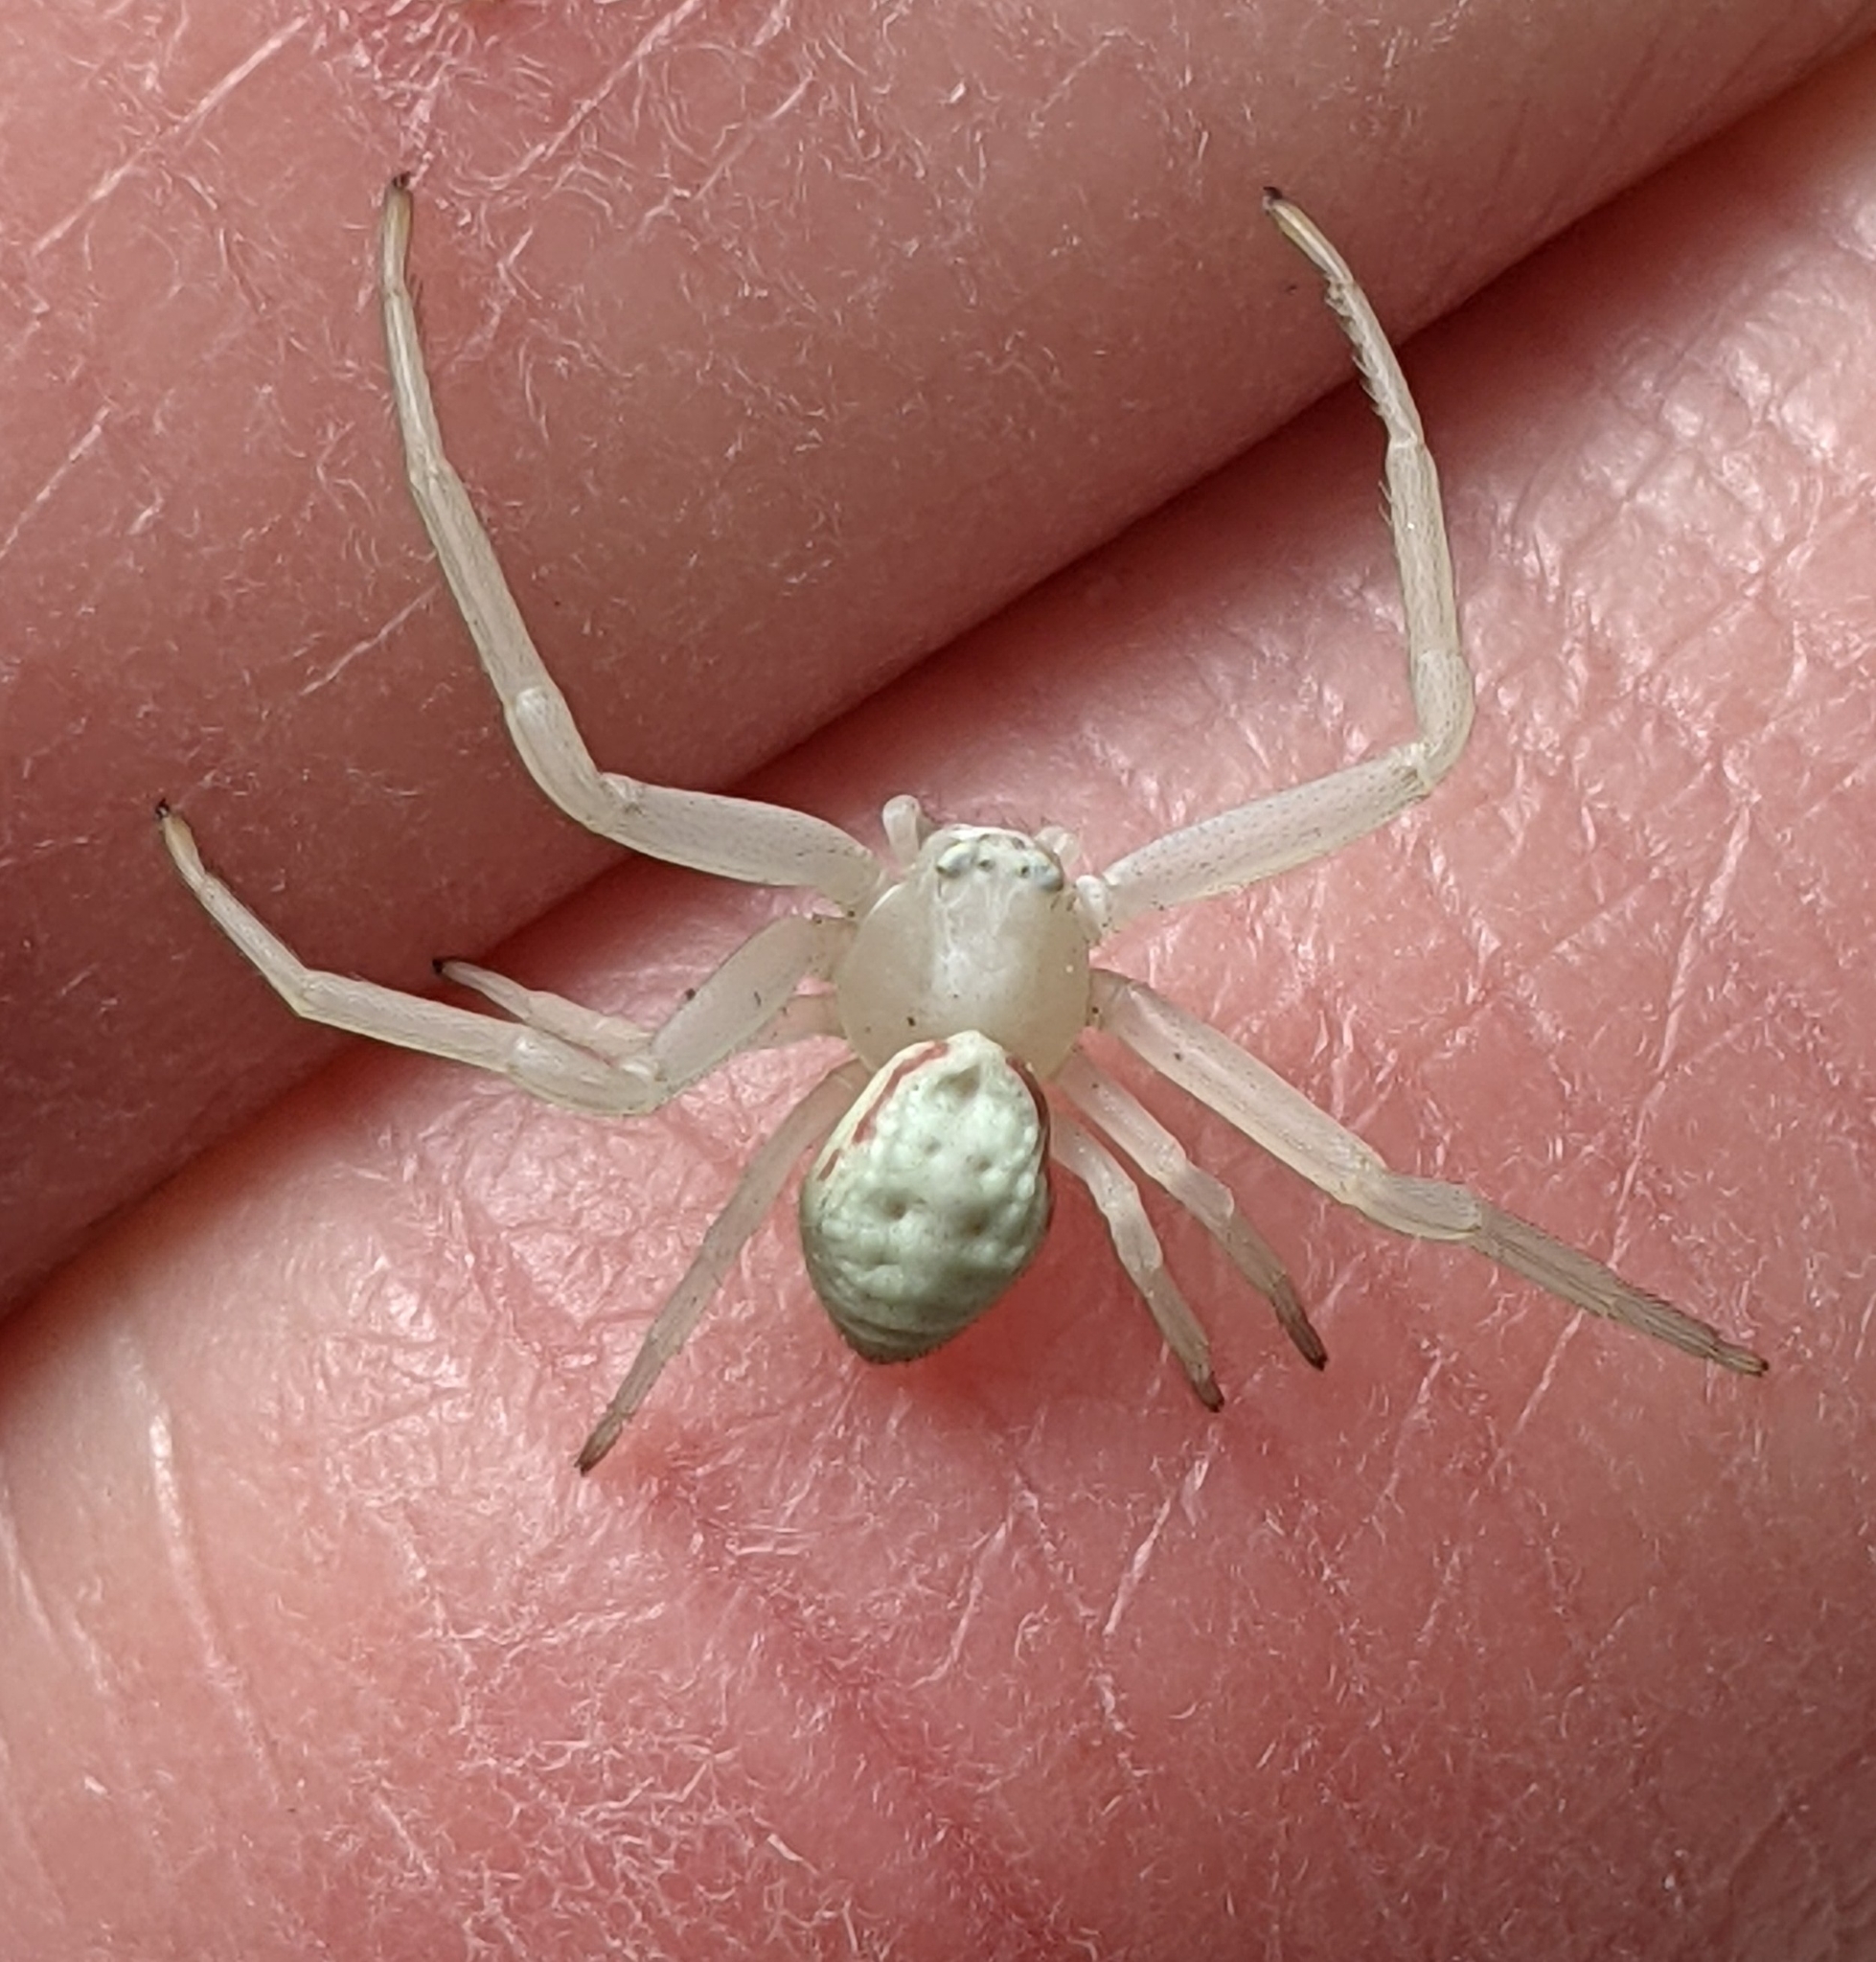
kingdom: Animalia
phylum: Arthropoda
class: Arachnida
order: Araneae
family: Thomisidae
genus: Misumena
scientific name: Misumena vatia
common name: Goldenrod crab spider
